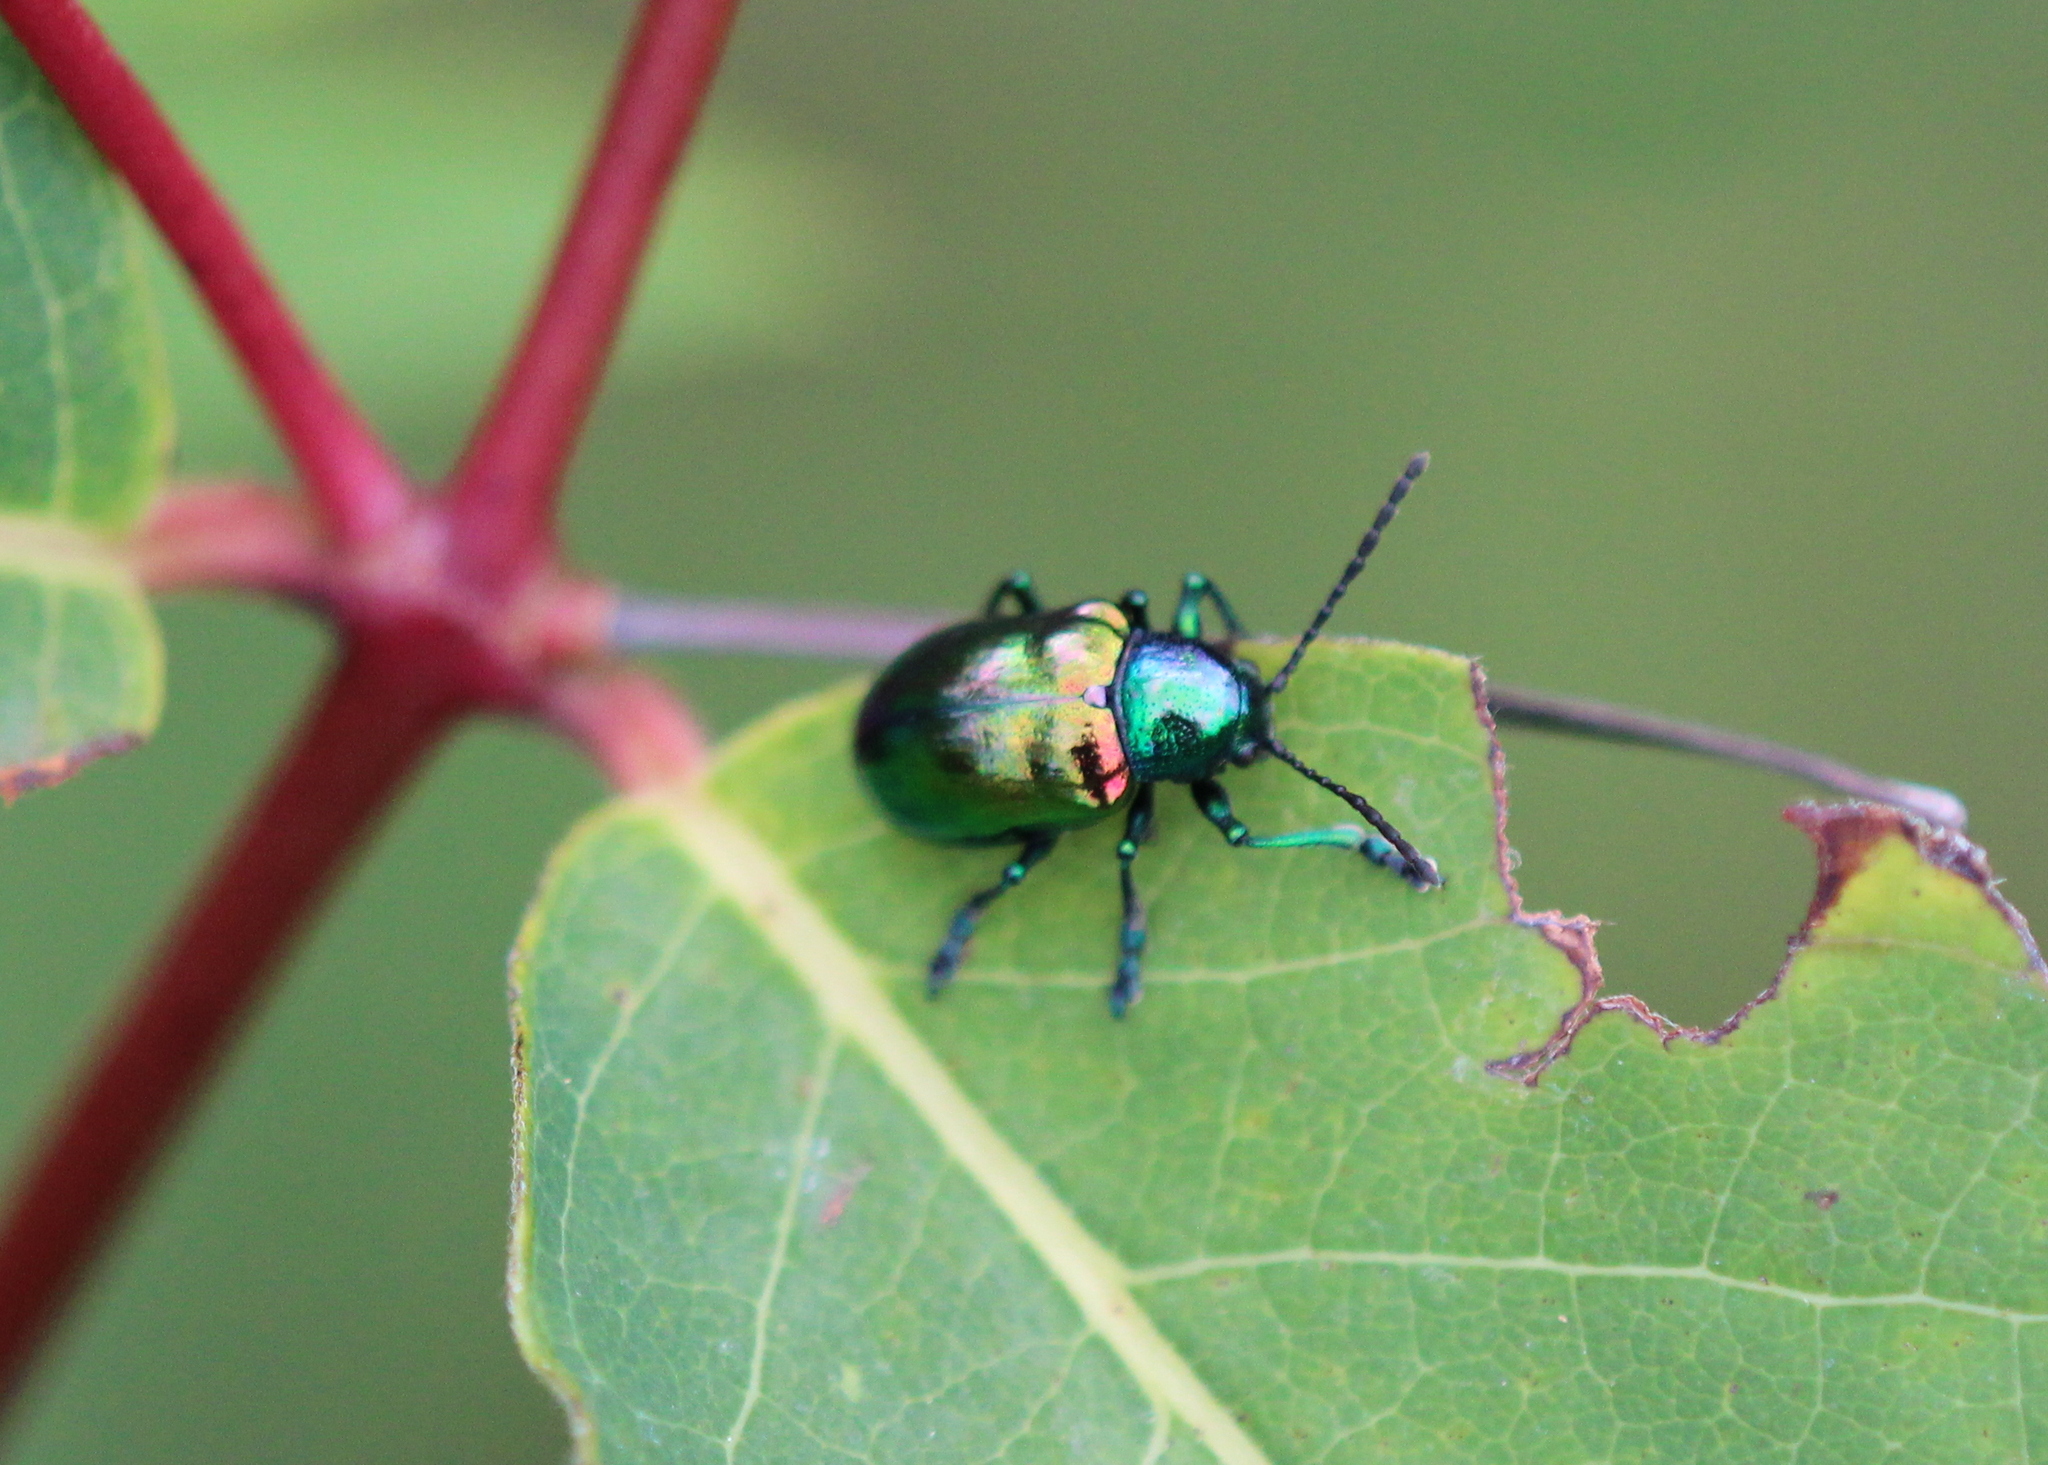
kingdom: Animalia
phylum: Arthropoda
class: Insecta
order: Coleoptera
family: Chrysomelidae
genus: Chrysochus
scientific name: Chrysochus auratus
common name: Dogbane leaf beetle
